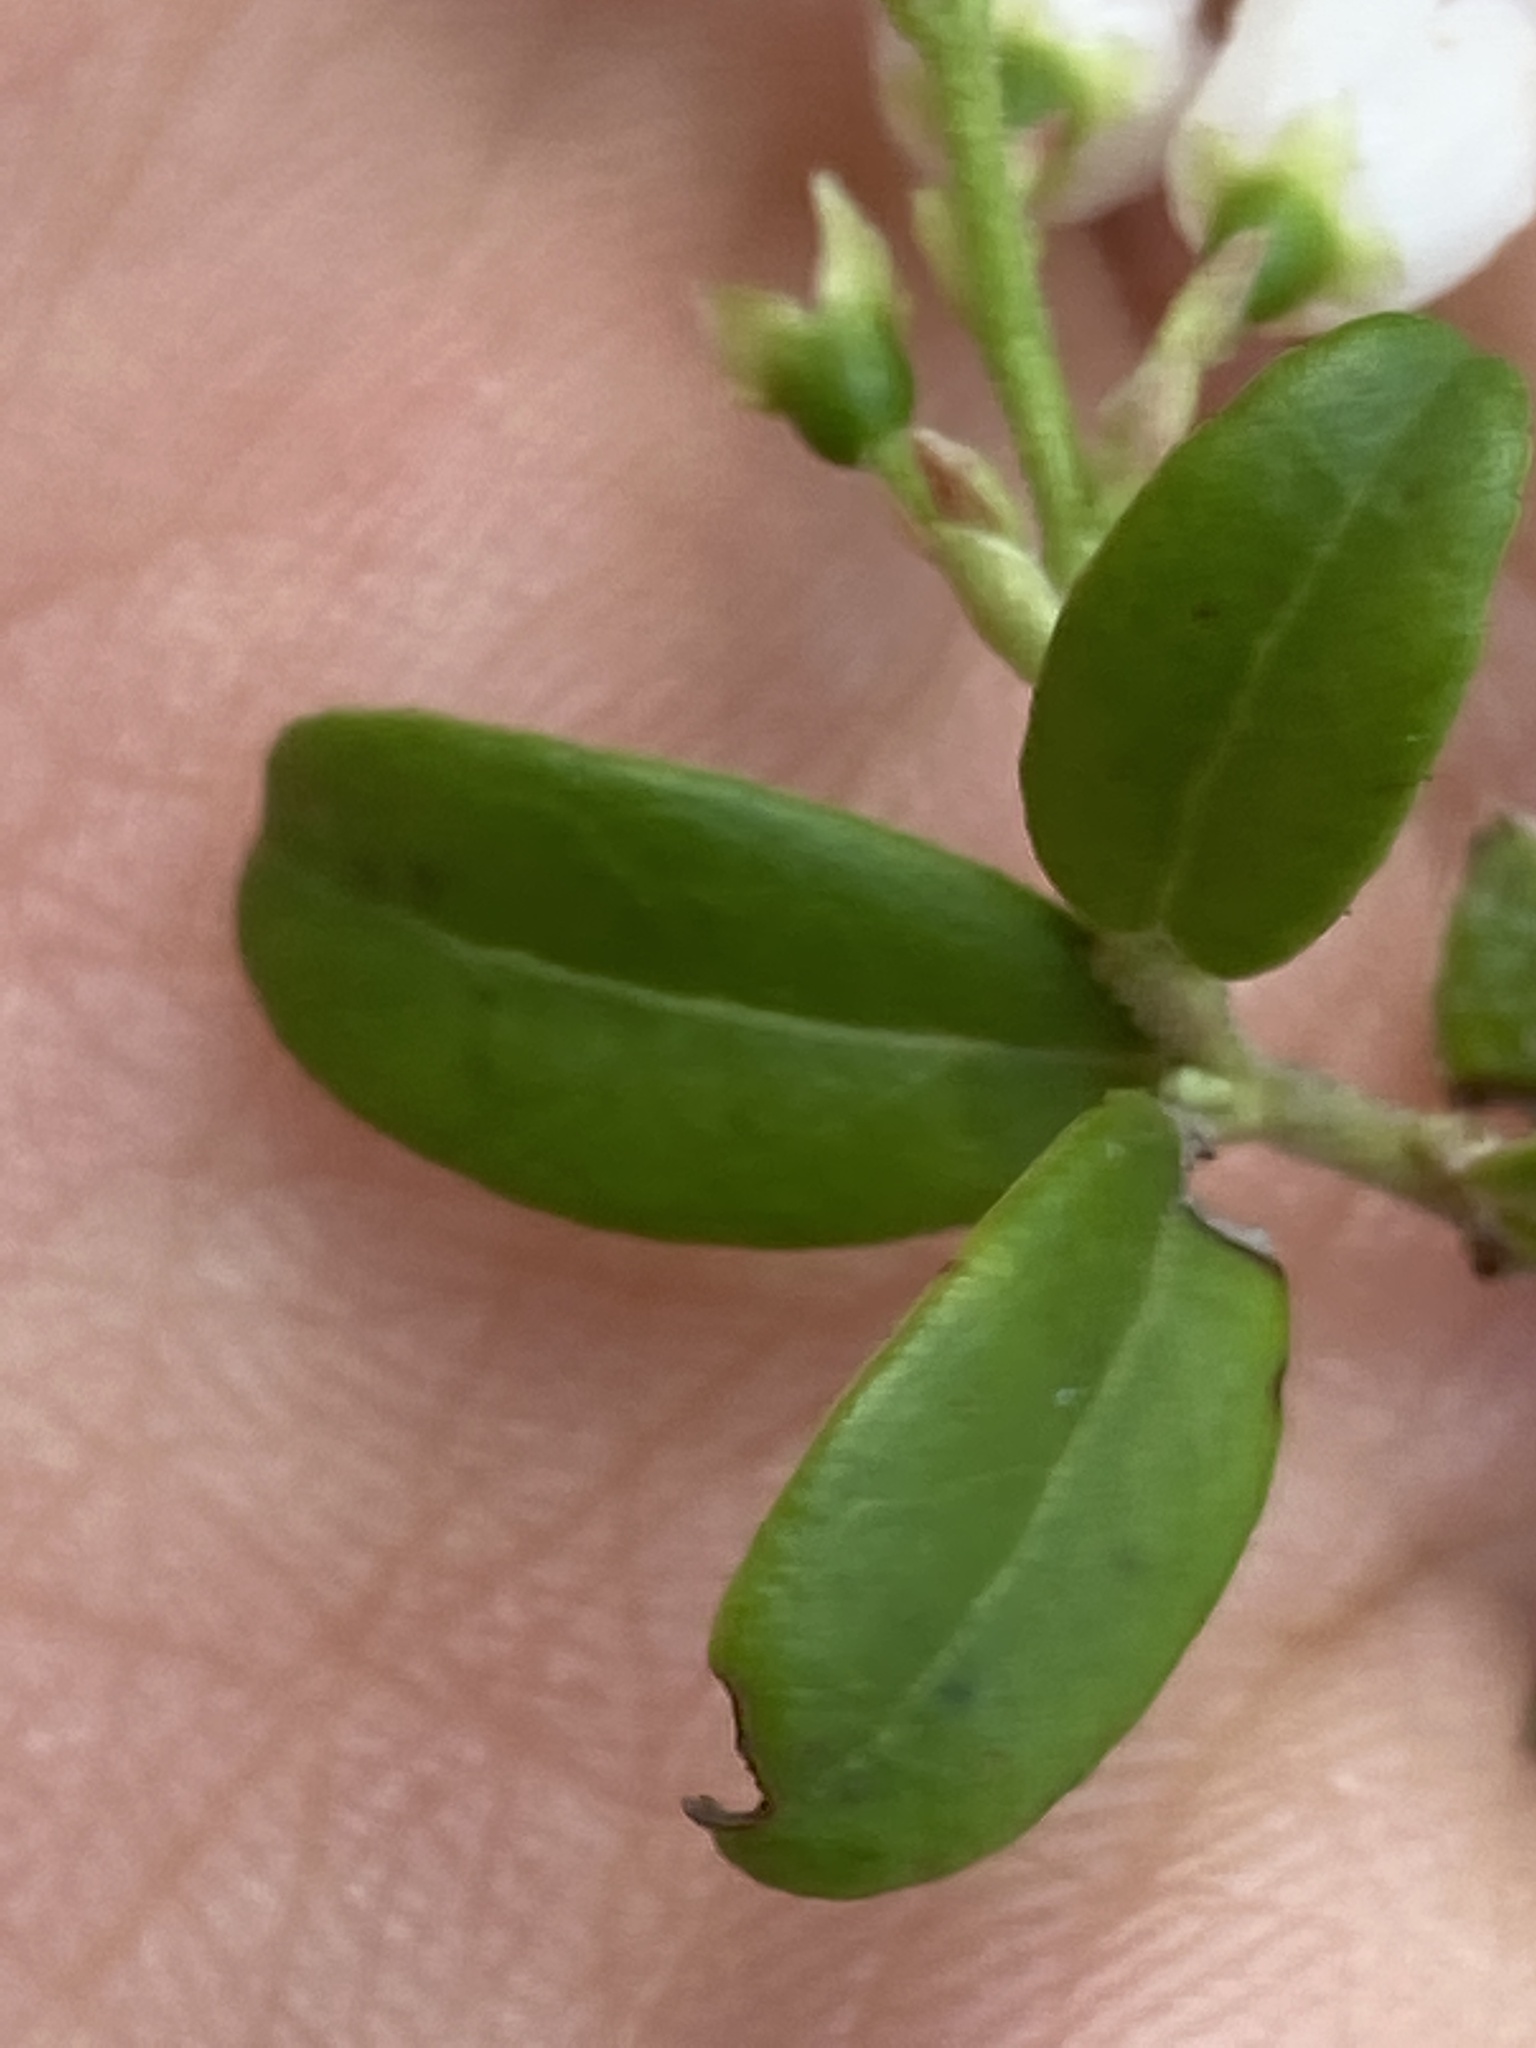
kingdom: Plantae
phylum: Tracheophyta
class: Magnoliopsida
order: Ericales
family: Ericaceae
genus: Vaccinium
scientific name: Vaccinium vitis-idaea
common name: Cowberry
